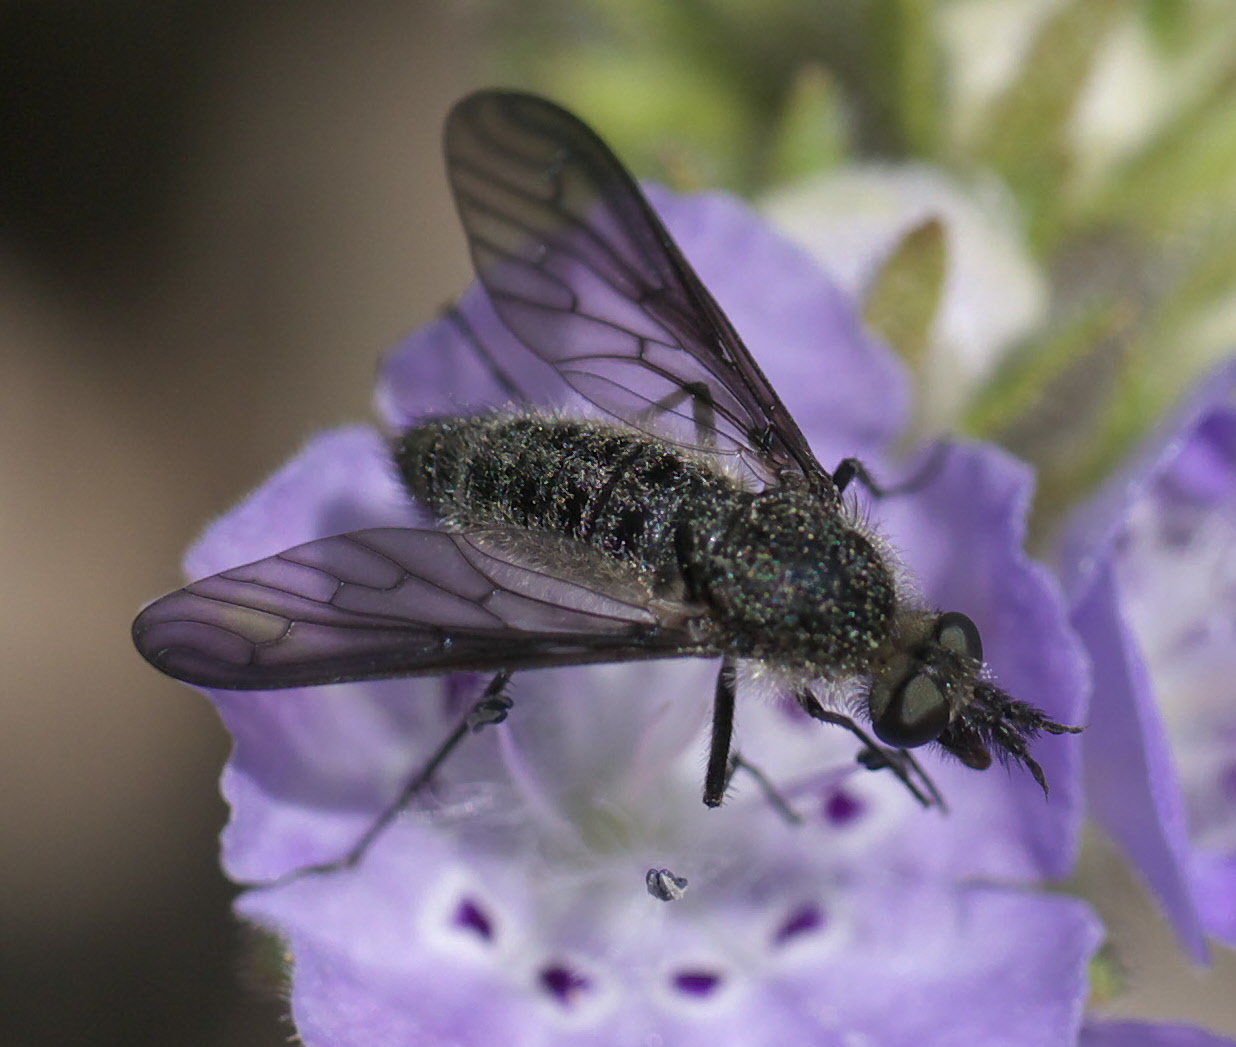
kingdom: Animalia
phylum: Arthropoda
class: Insecta
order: Diptera
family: Bombyliidae
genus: Aldrichia
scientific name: Aldrichia ehrmanni
